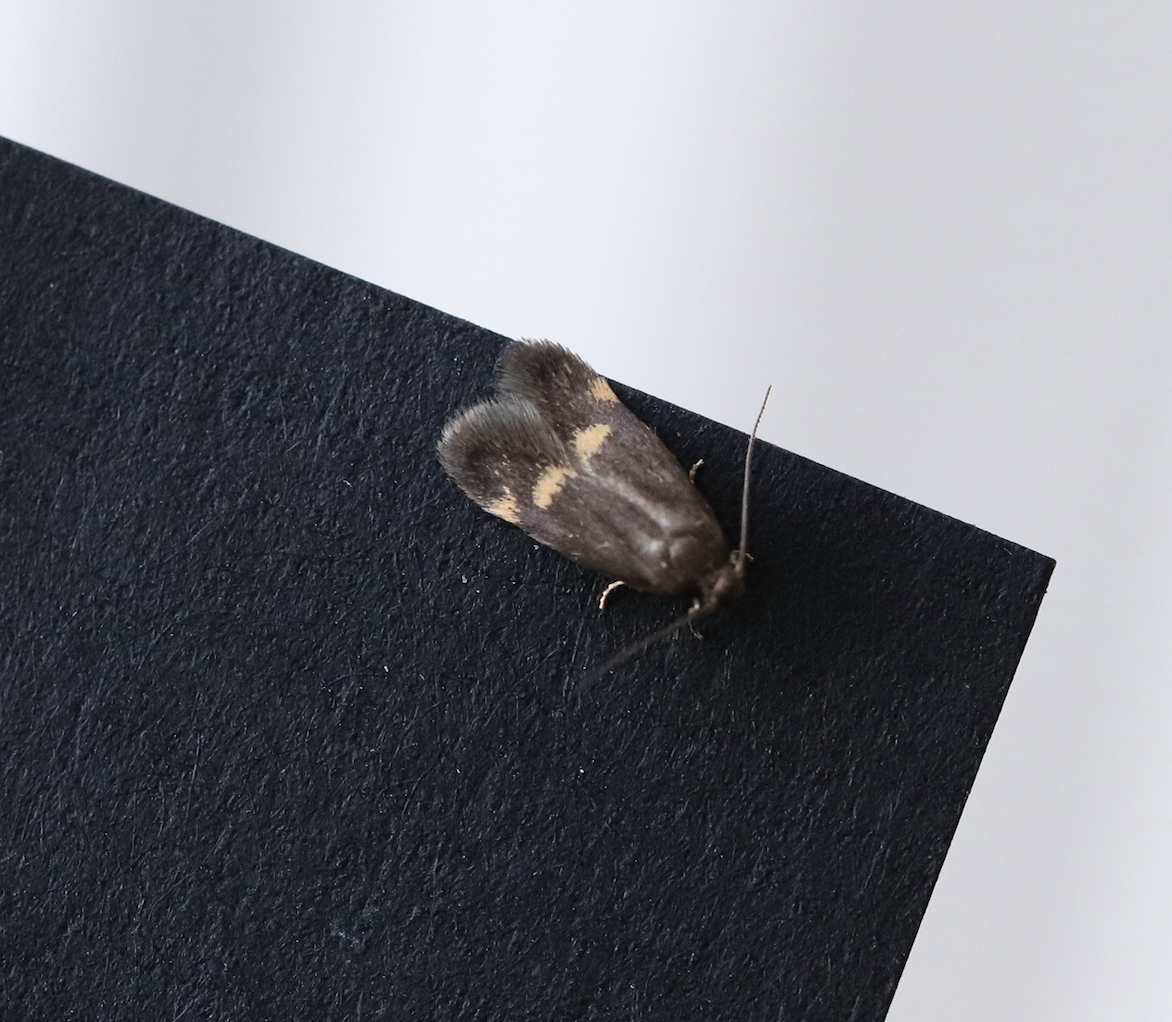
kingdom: Animalia
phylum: Arthropoda
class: Insecta
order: Lepidoptera
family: Oecophoridae
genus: Borkhausenia
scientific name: Borkhausenia minutella
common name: Thatch tubic
